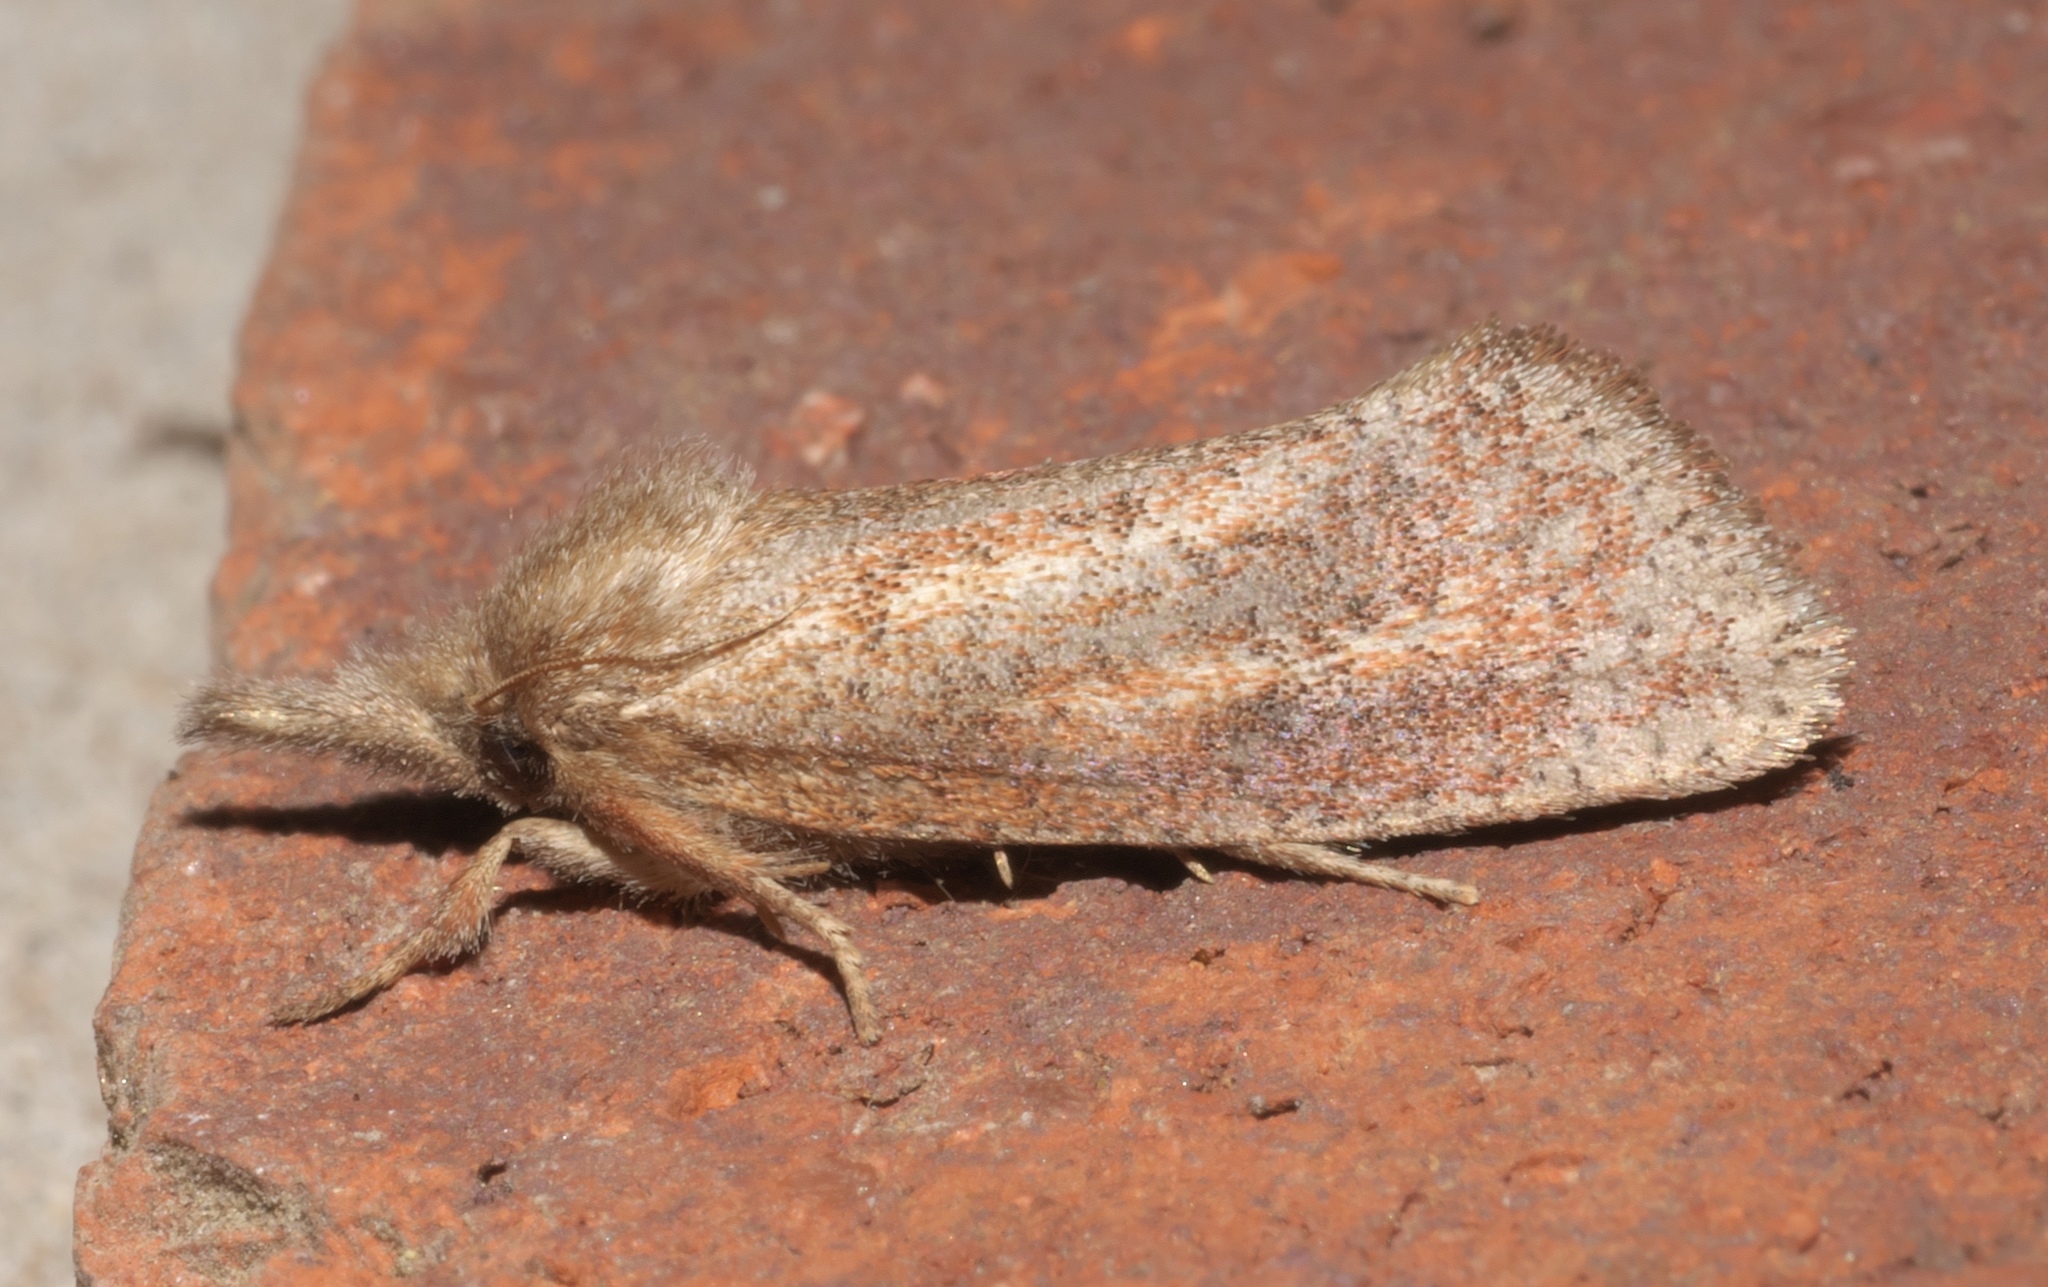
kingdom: Animalia
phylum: Arthropoda
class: Insecta
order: Lepidoptera
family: Tineidae
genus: Acrolophus
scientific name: Acrolophus plumifrontella
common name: Eastern grass tubeworm moth
